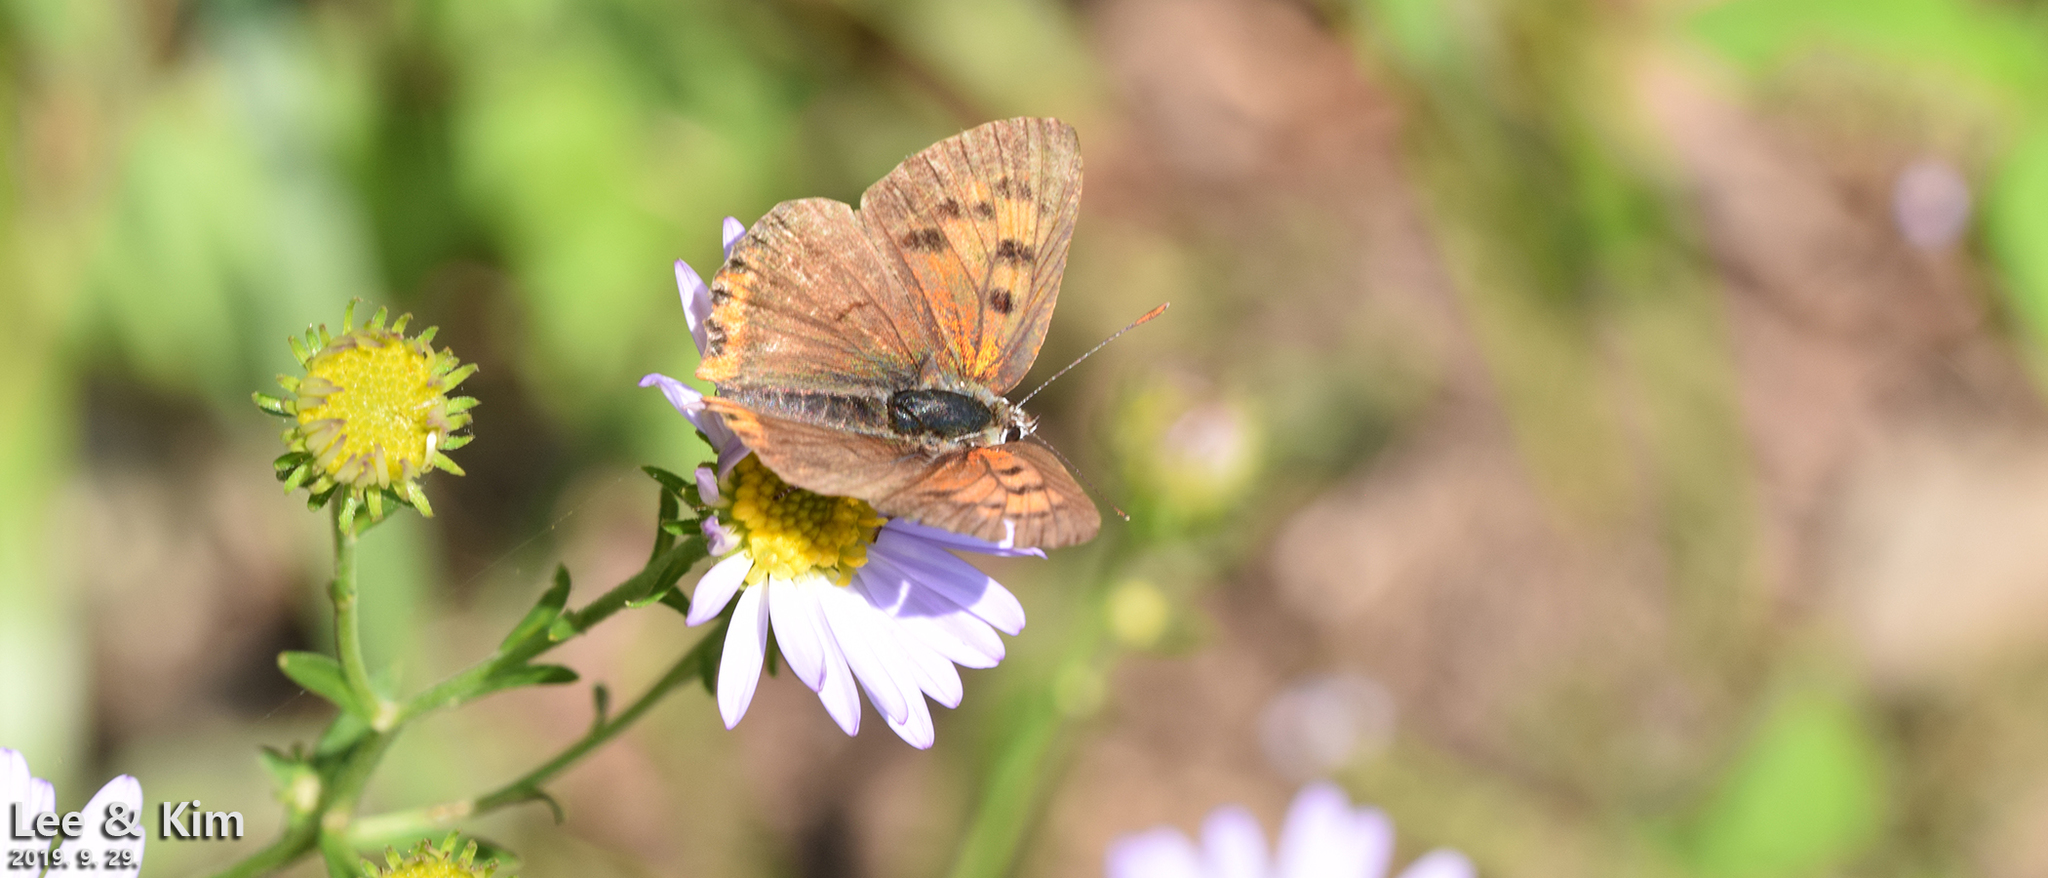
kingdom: Animalia
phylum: Arthropoda
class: Insecta
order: Lepidoptera
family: Lycaenidae
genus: Lycaena
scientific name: Lycaena phlaeas
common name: Small copper
